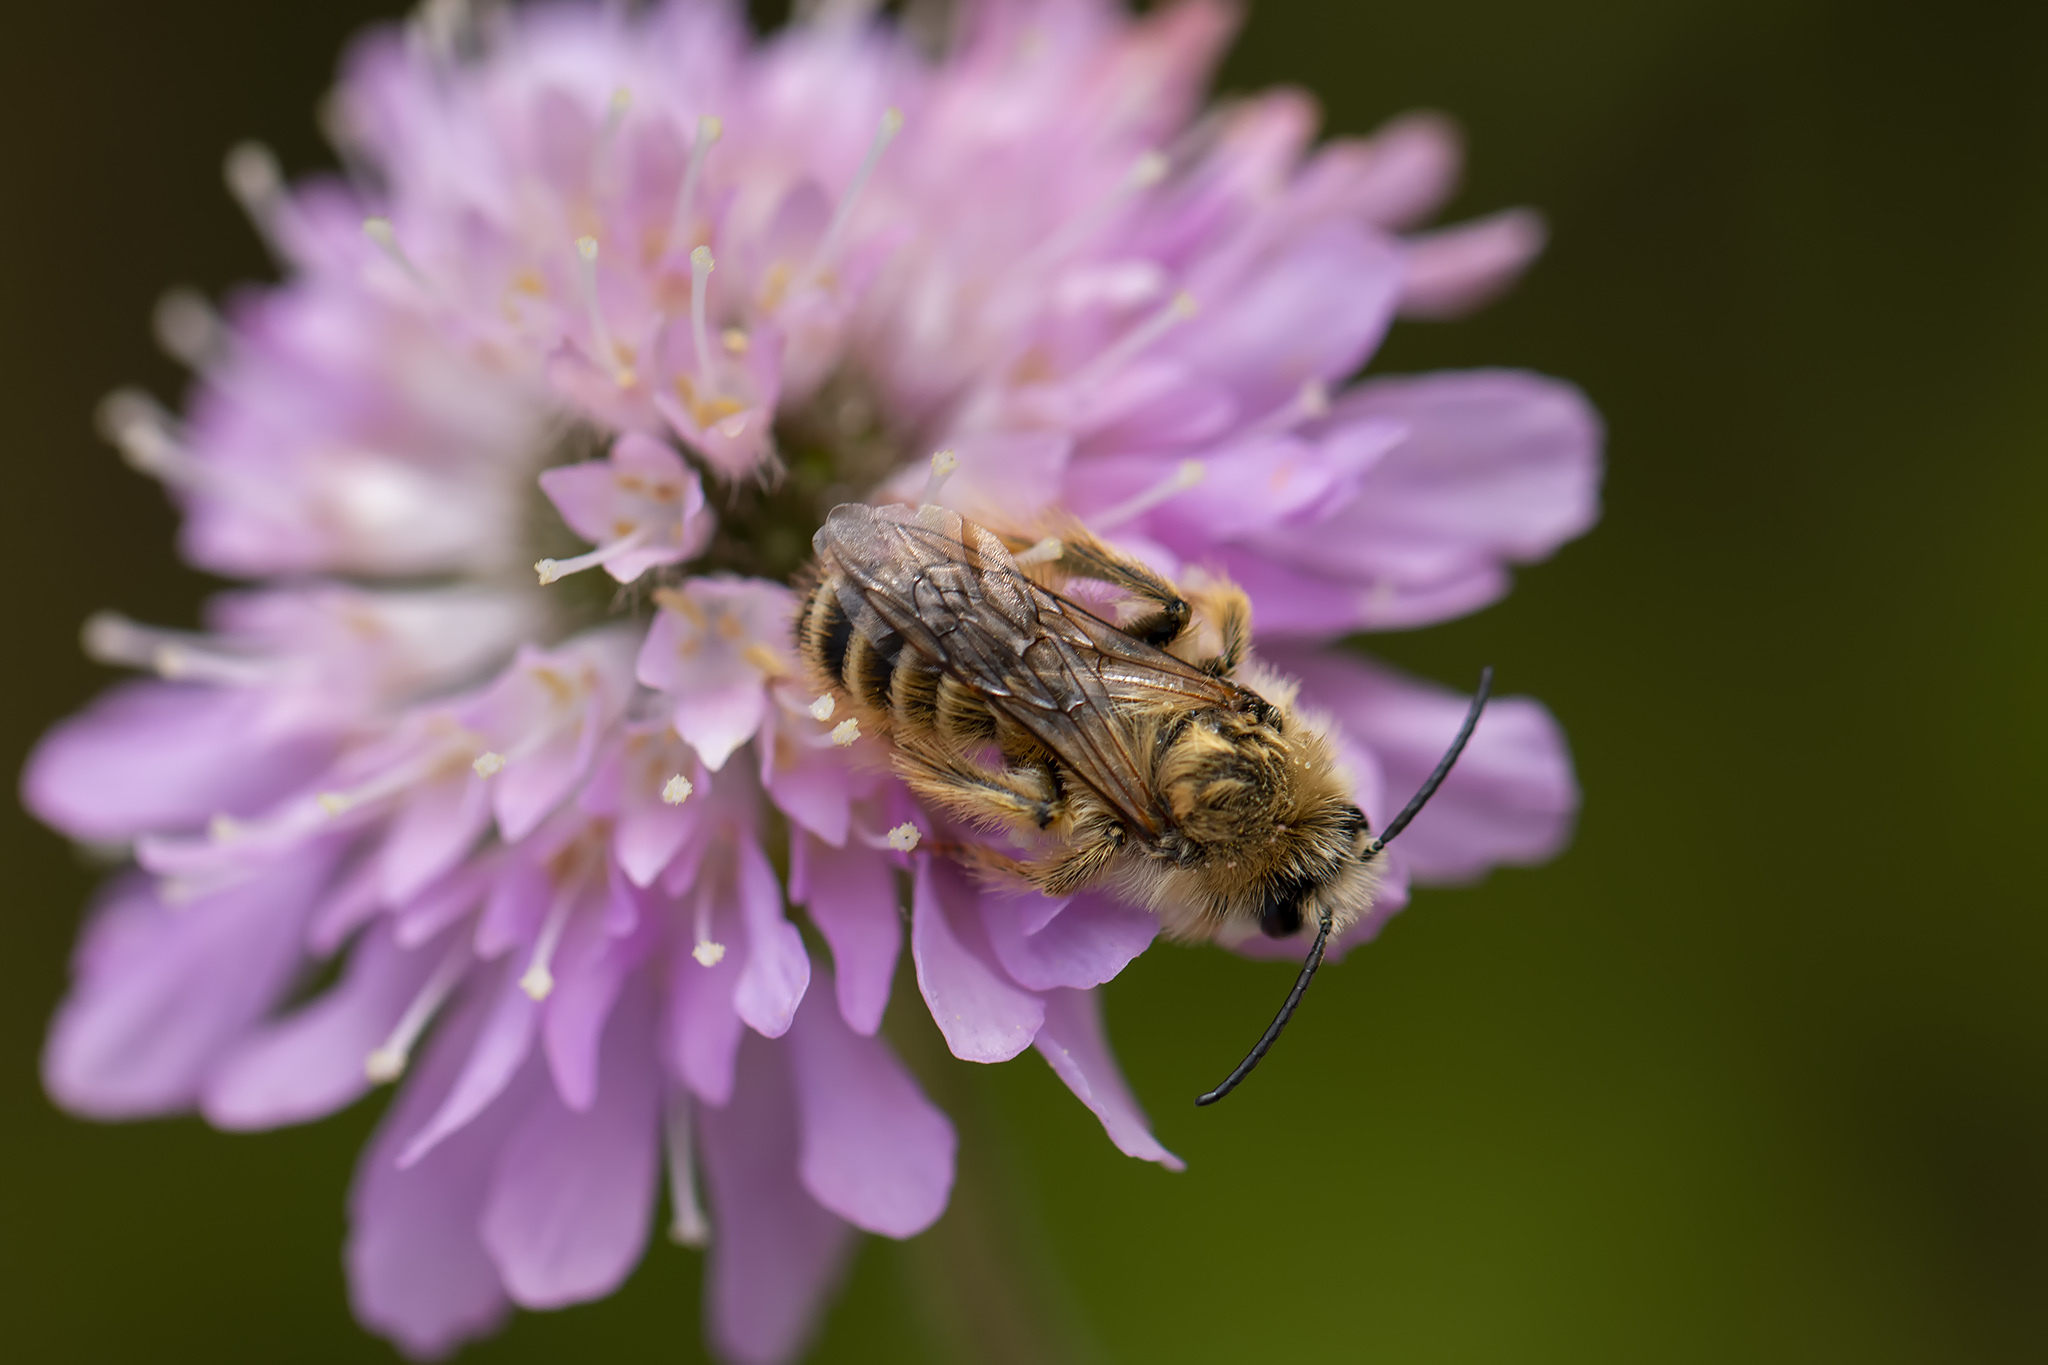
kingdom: Animalia
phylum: Arthropoda
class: Insecta
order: Hymenoptera
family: Melittidae
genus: Dasypoda
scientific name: Dasypoda hirtipes
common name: Pantaloon bee
